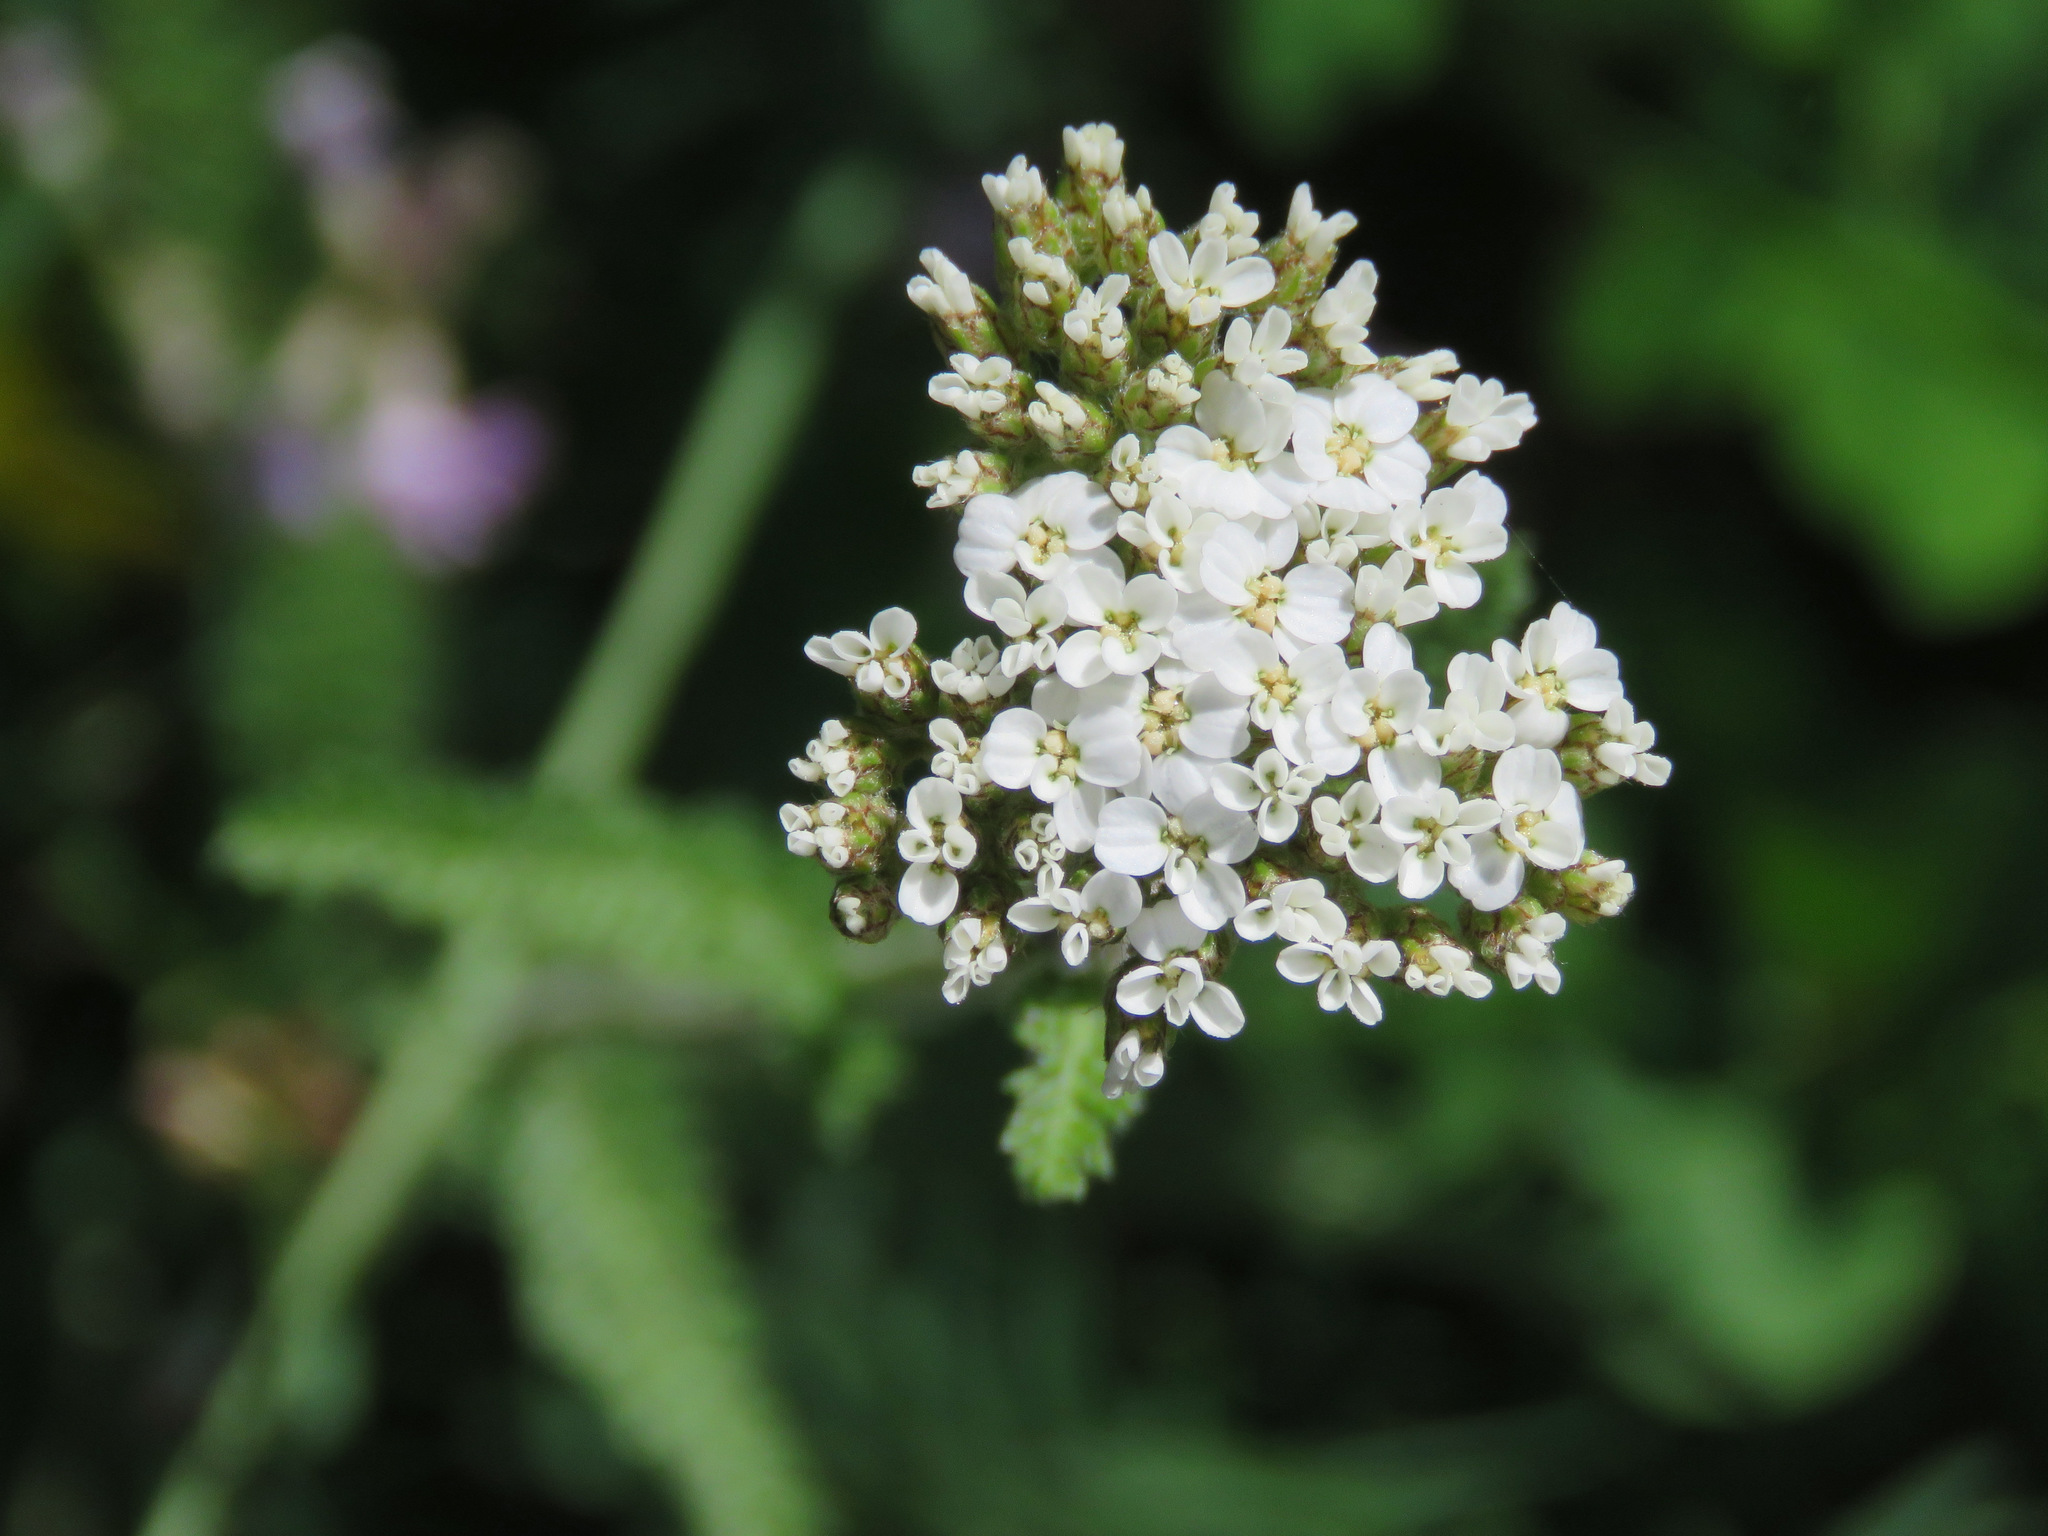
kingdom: Plantae
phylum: Tracheophyta
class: Magnoliopsida
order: Asterales
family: Asteraceae
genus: Achillea
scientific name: Achillea millefolium
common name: Yarrow
